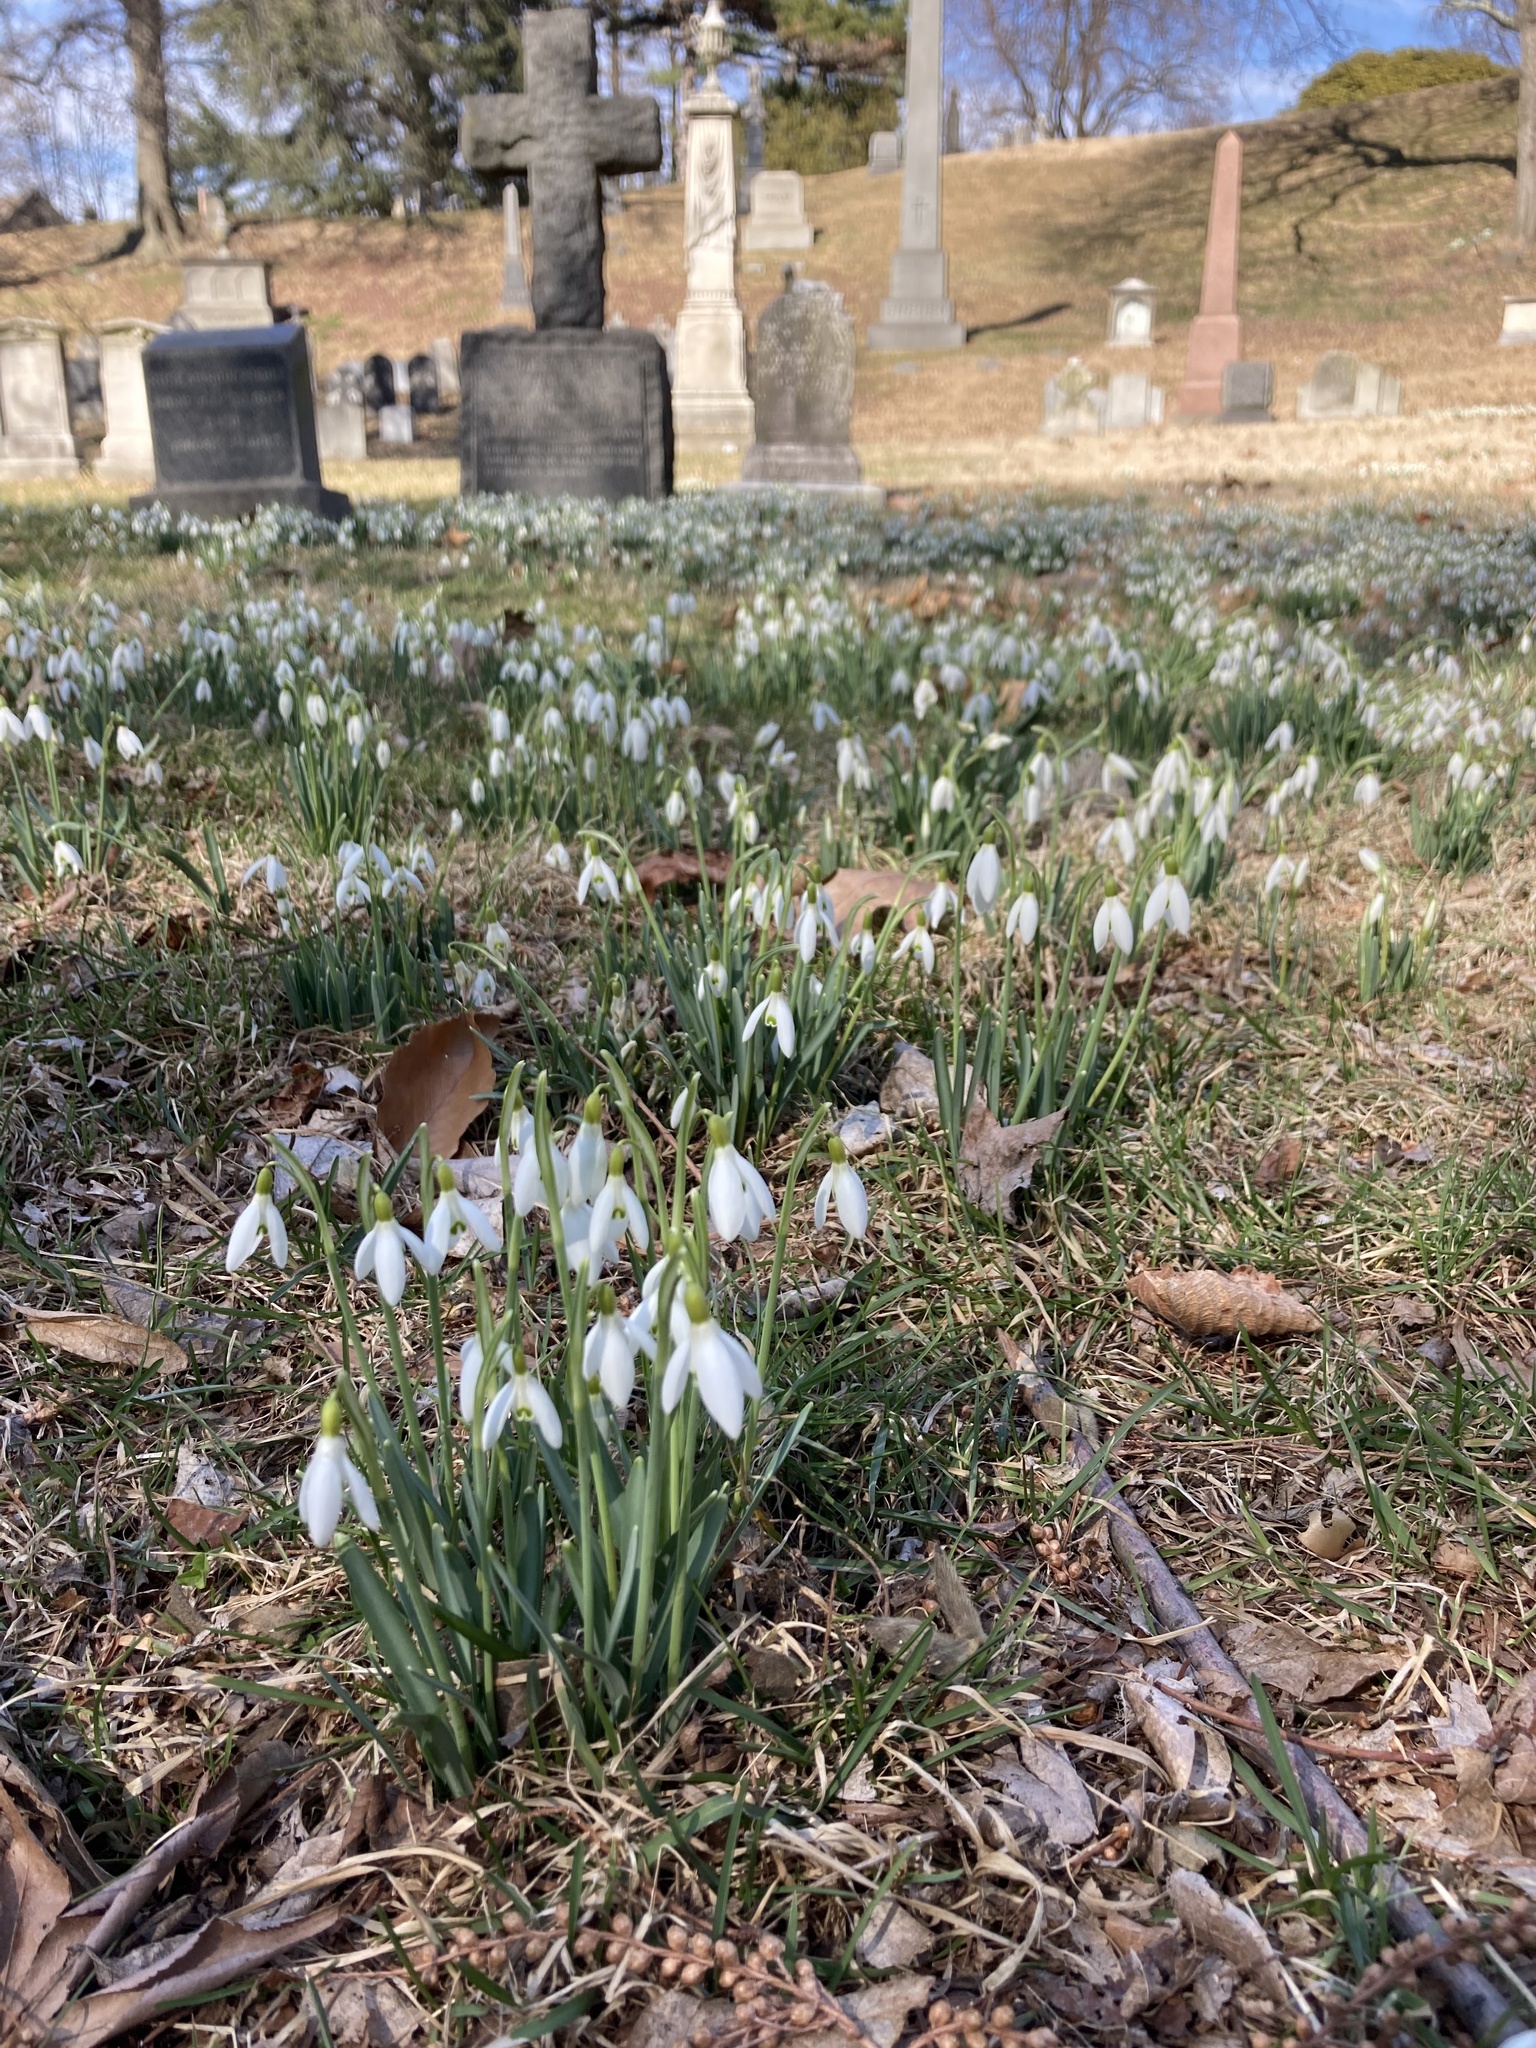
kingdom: Plantae
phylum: Tracheophyta
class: Liliopsida
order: Asparagales
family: Amaryllidaceae
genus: Galanthus
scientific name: Galanthus nivalis
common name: Snowdrop
